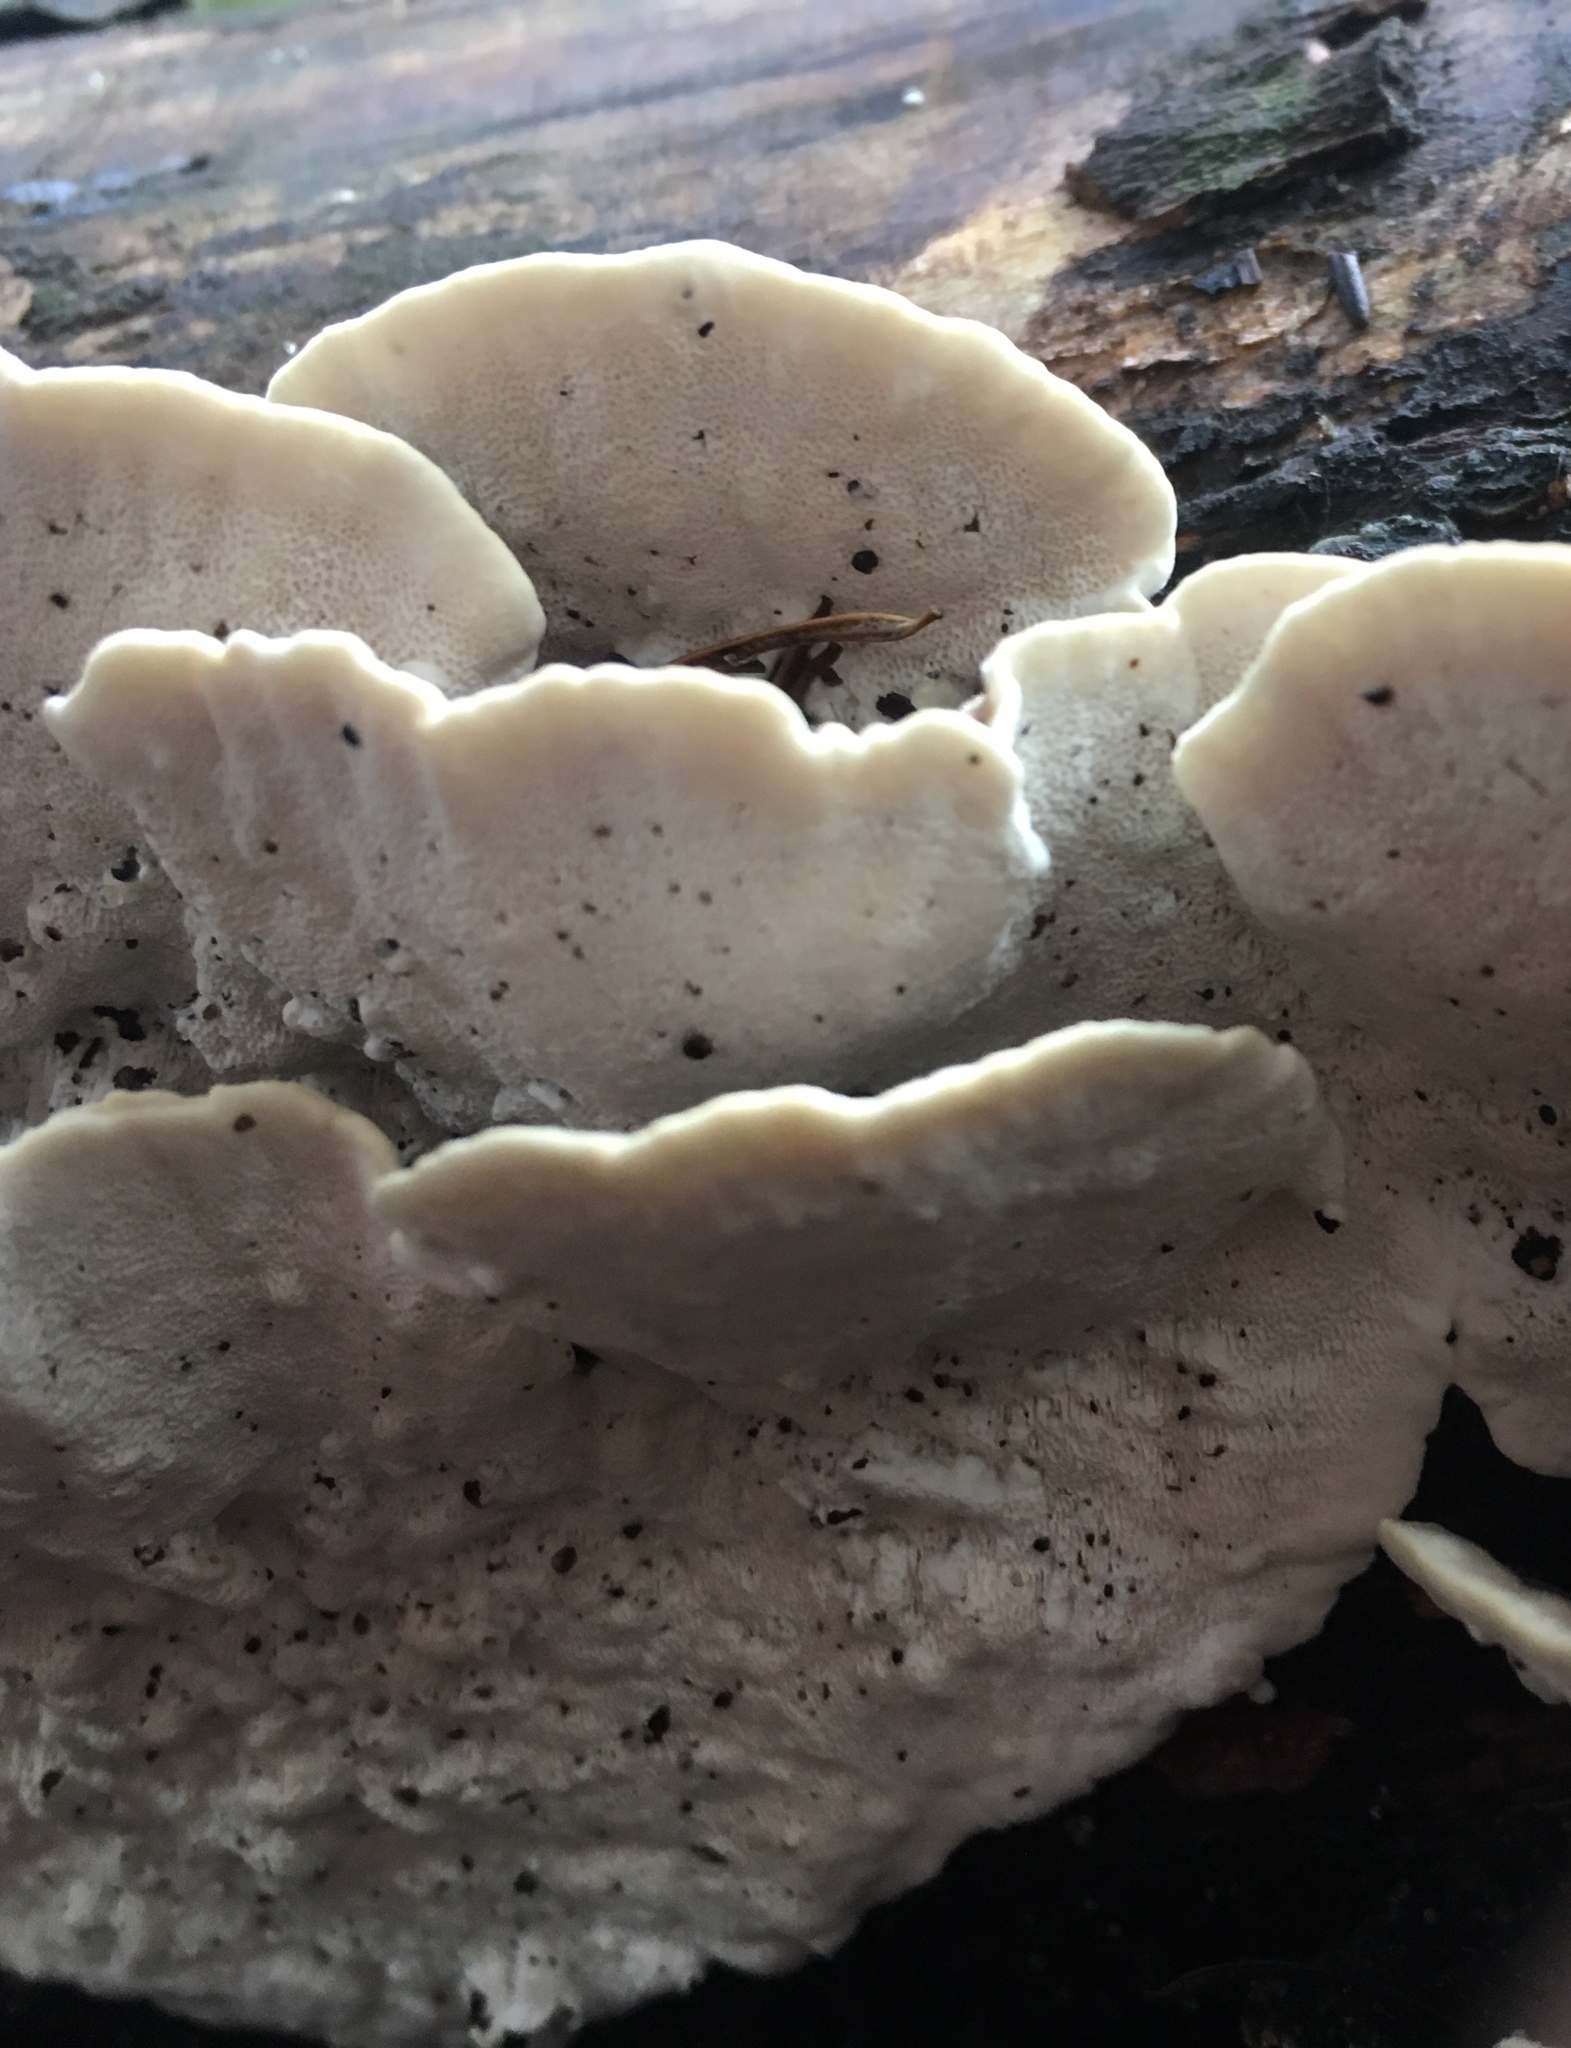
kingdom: Fungi
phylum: Basidiomycota
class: Agaricomycetes
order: Polyporales
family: Polyporaceae
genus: Trametes
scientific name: Trametes versicolor
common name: Turkeytail
